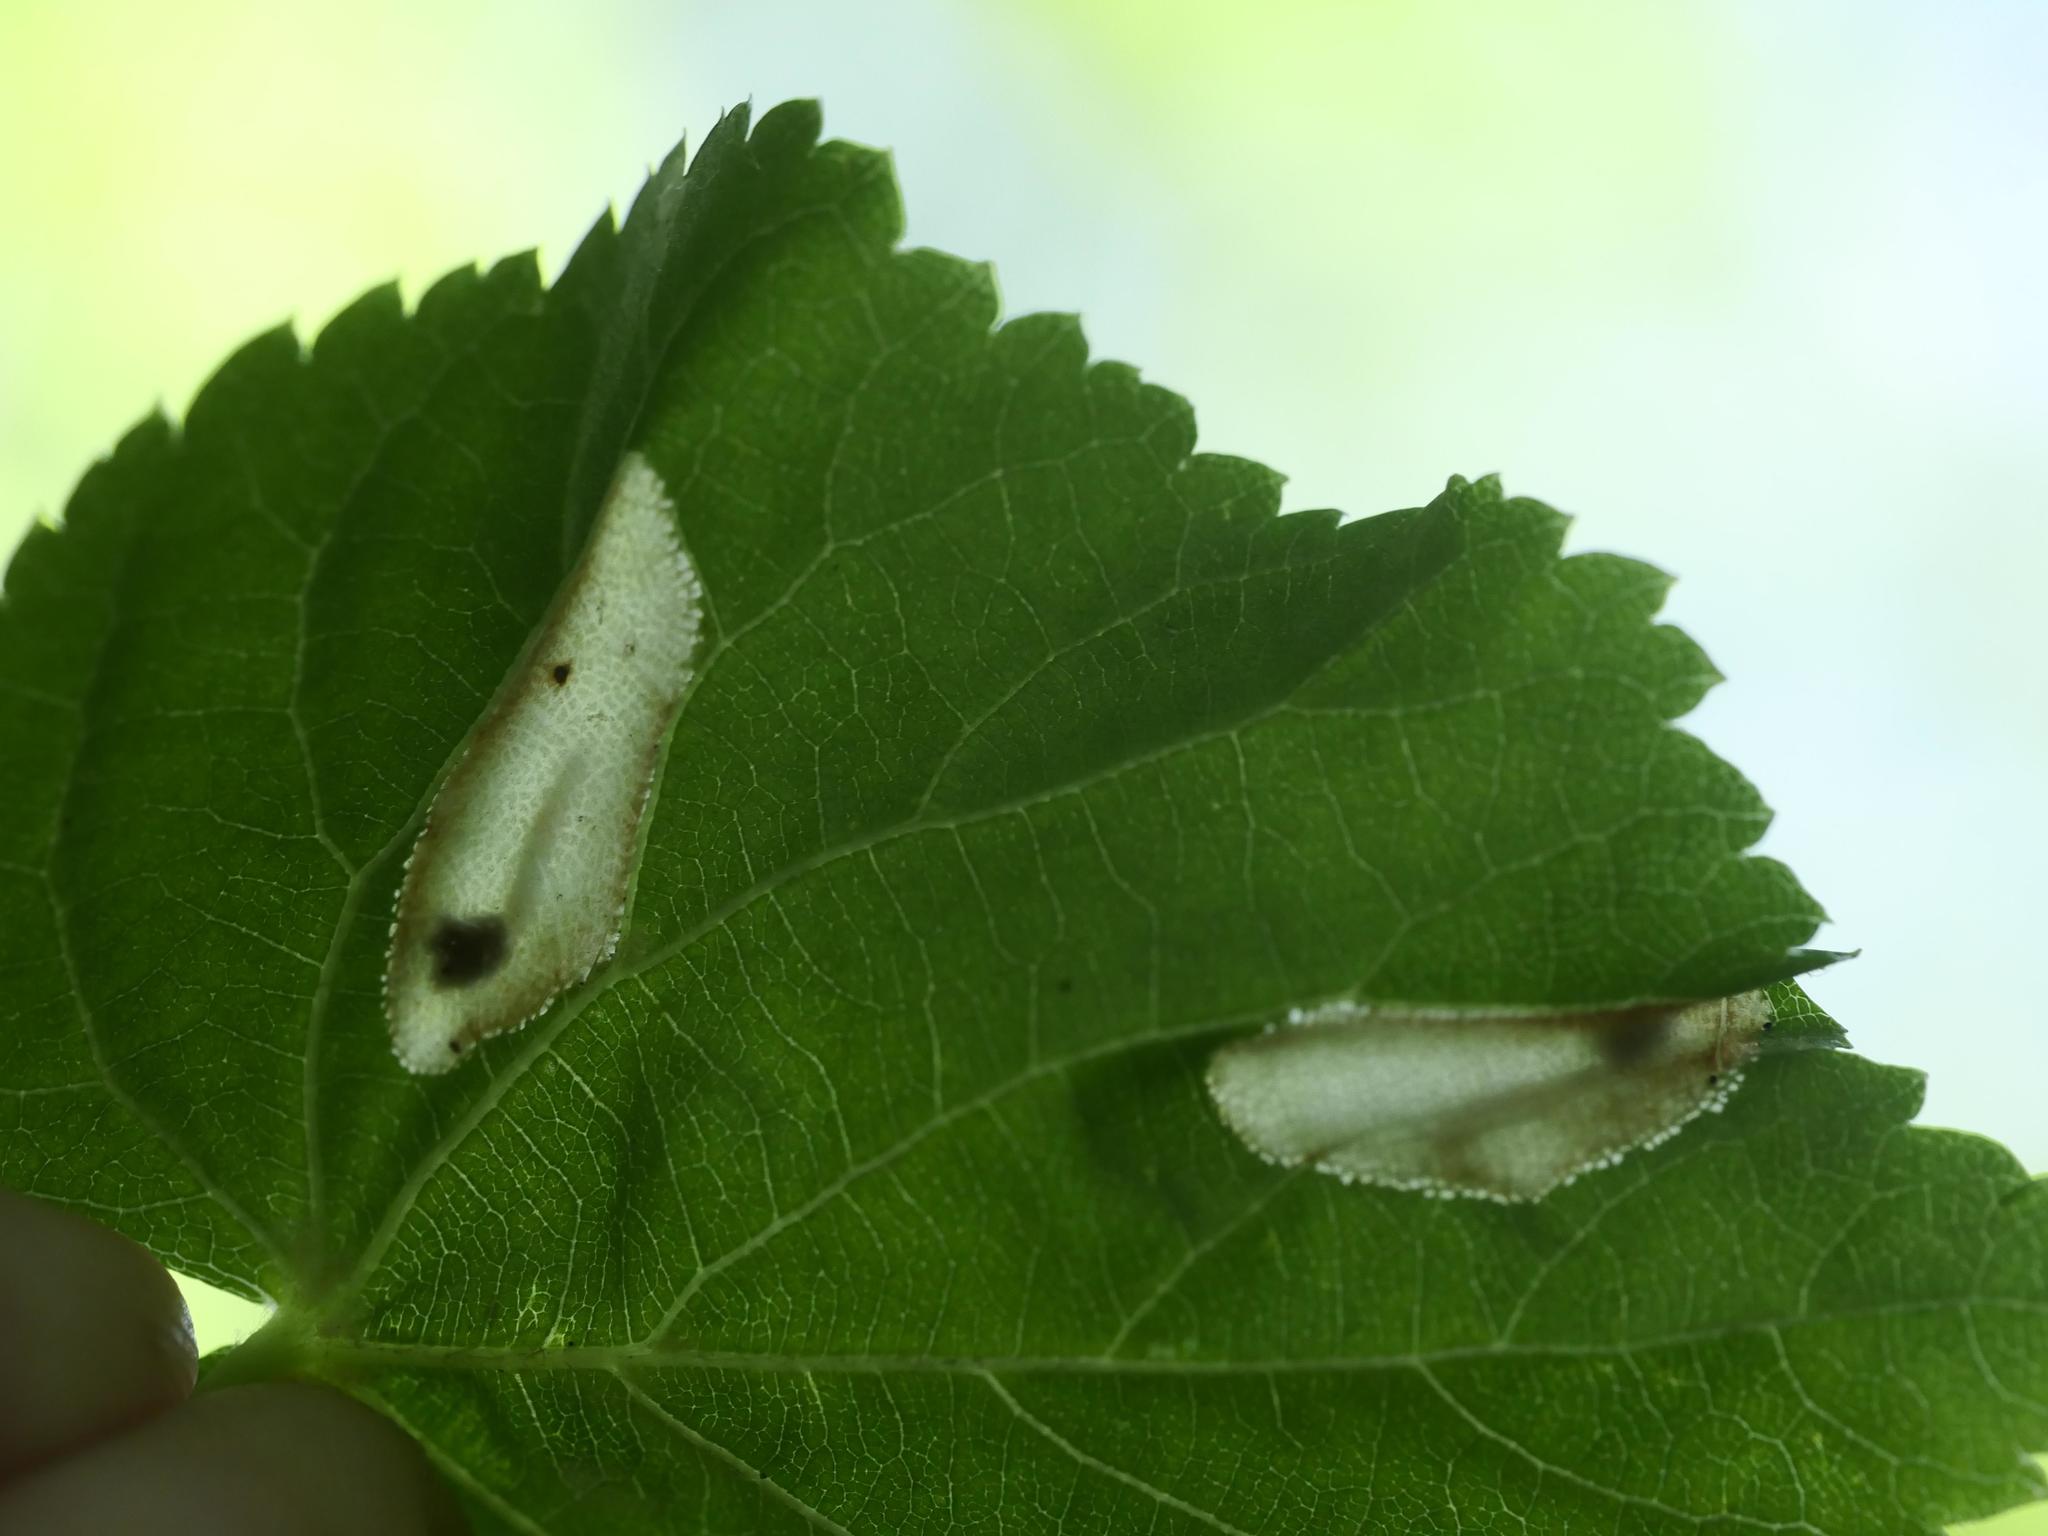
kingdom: Animalia
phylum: Arthropoda
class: Insecta
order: Lepidoptera
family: Gracillariidae
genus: Phyllonorycter
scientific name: Phyllonorycter issikii
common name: Linden midget
